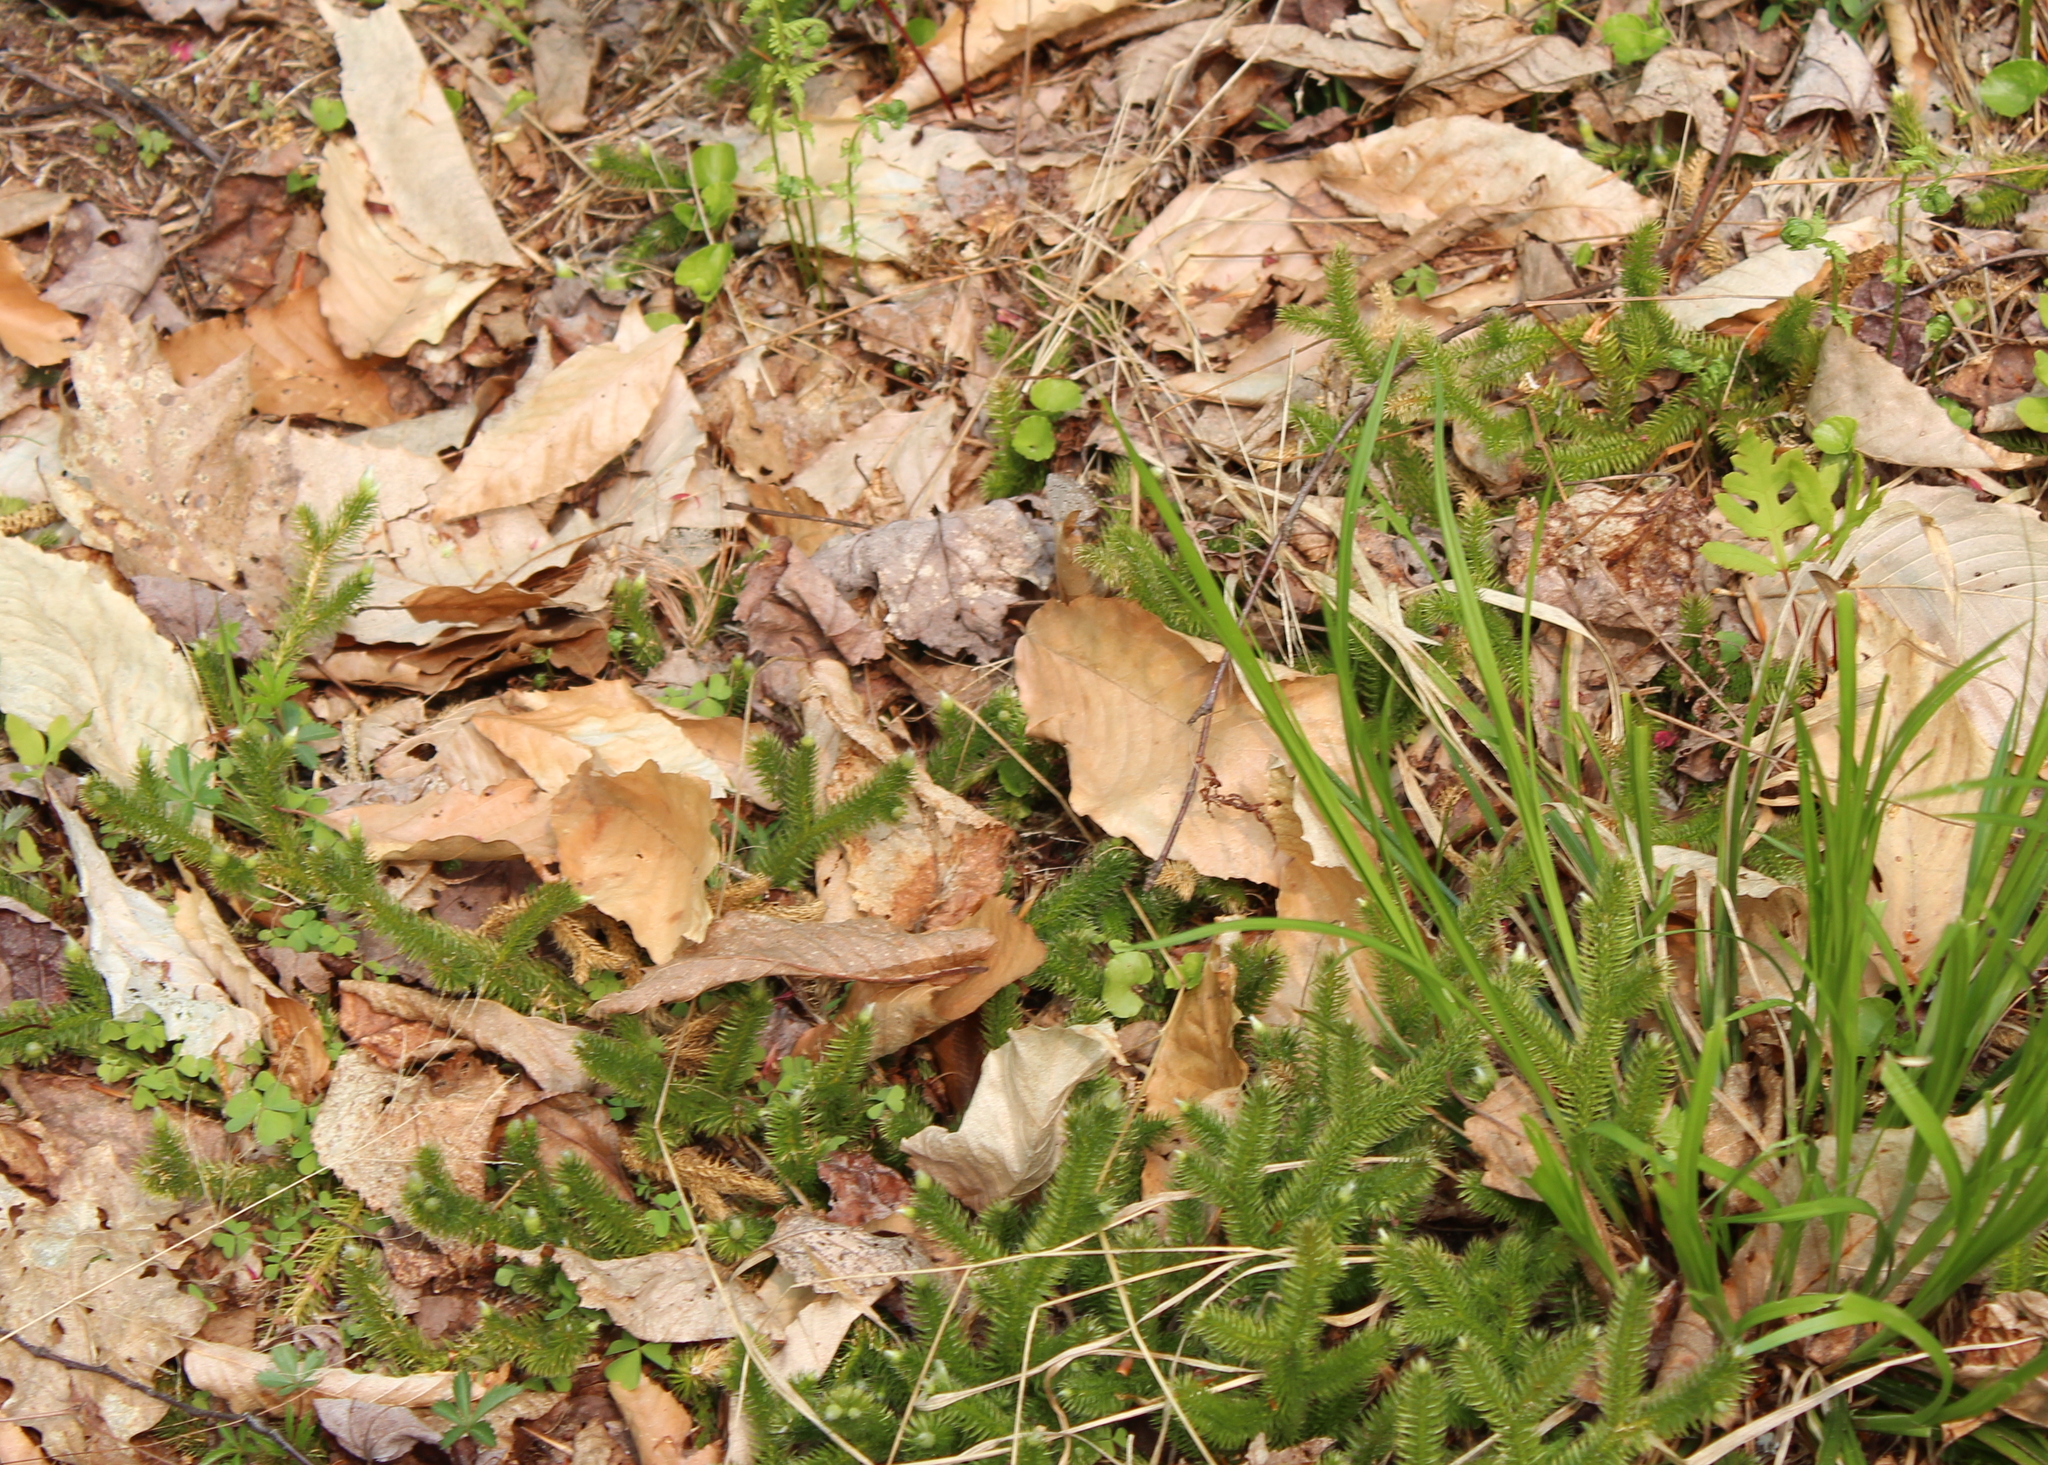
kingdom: Plantae
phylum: Tracheophyta
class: Lycopodiopsida
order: Lycopodiales
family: Lycopodiaceae
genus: Lycopodium
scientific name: Lycopodium clavatum
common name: Stag's-horn clubmoss
